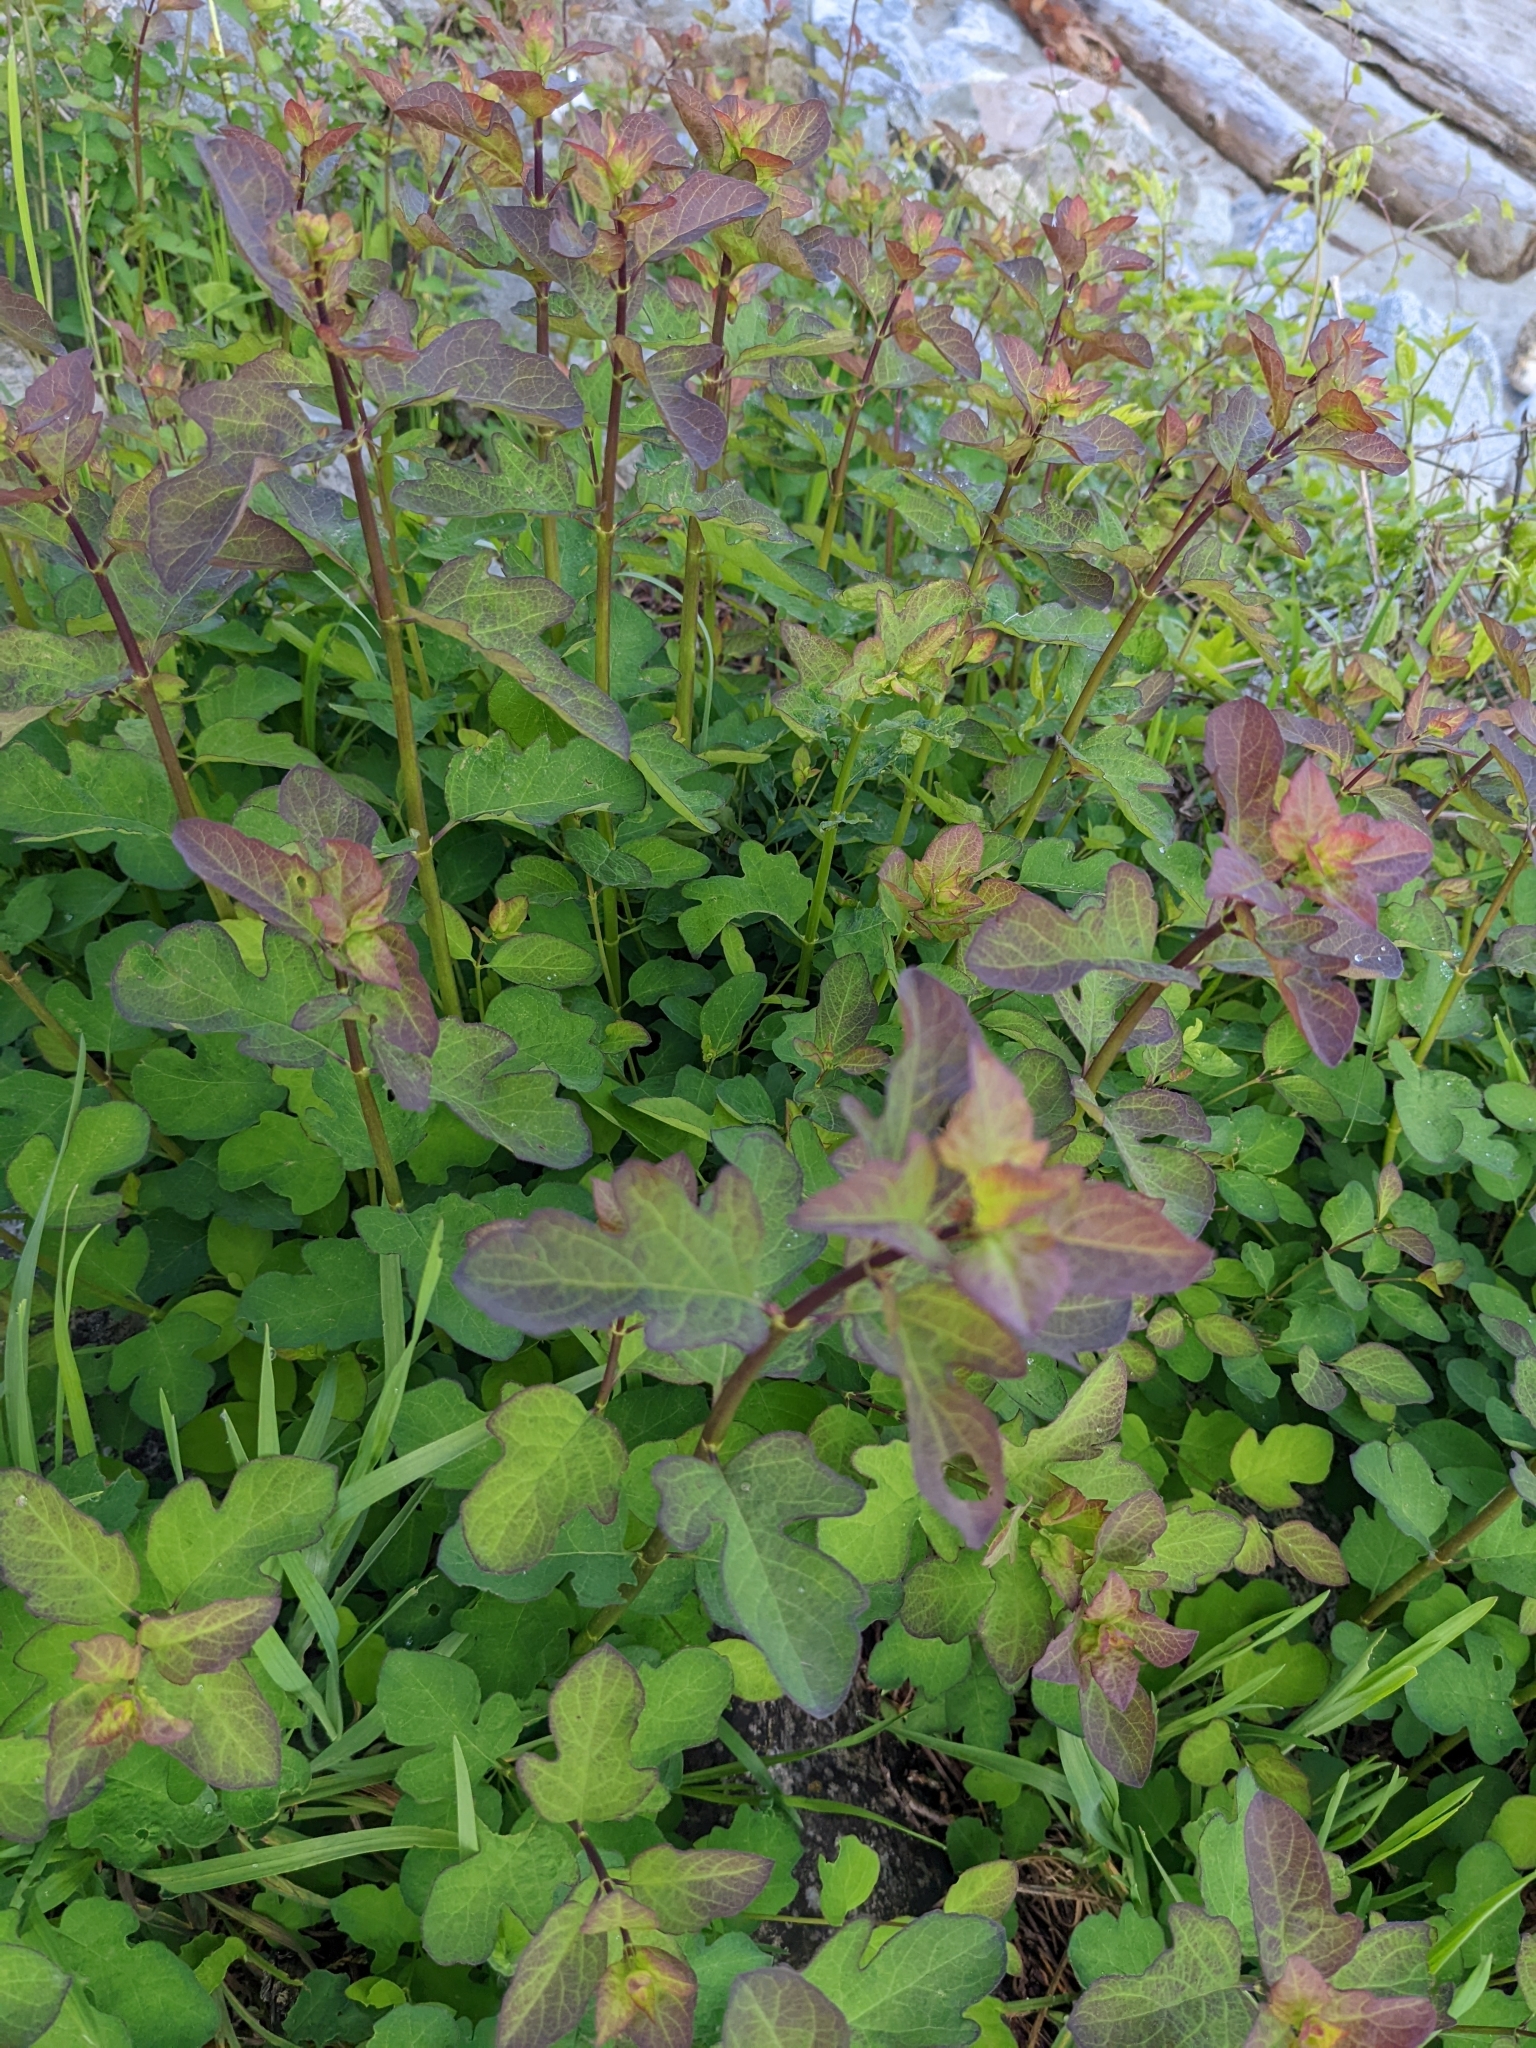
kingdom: Plantae
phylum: Tracheophyta
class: Magnoliopsida
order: Dipsacales
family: Caprifoliaceae
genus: Symphoricarpos
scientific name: Symphoricarpos albus
